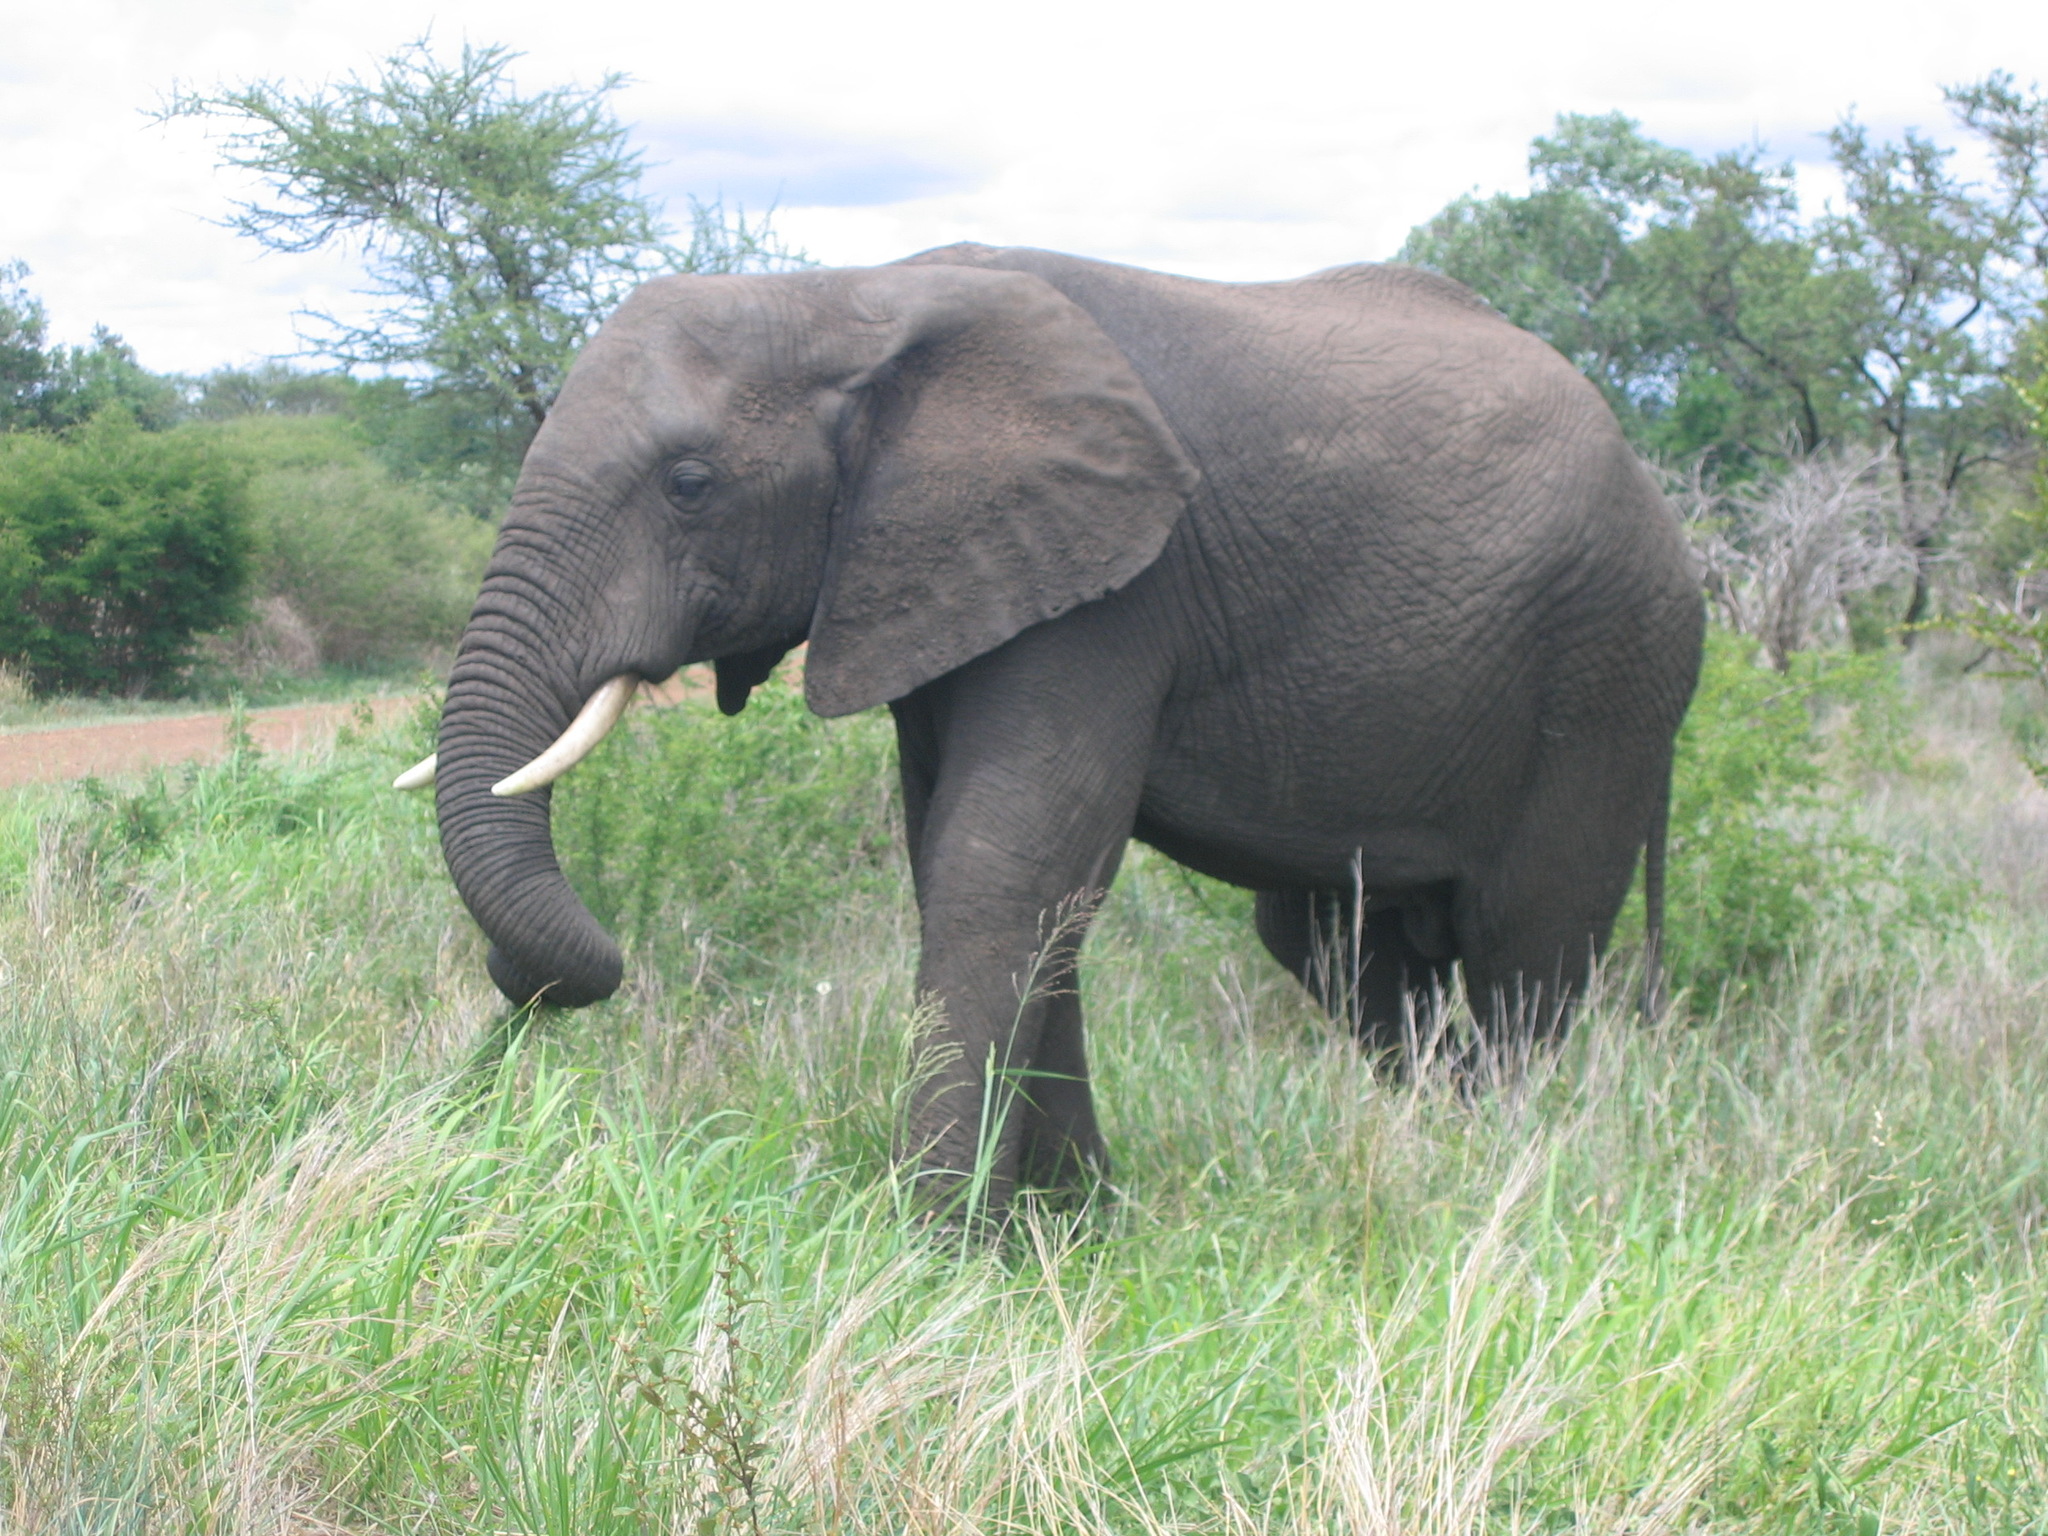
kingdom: Animalia
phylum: Chordata
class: Mammalia
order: Proboscidea
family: Elephantidae
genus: Loxodonta
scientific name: Loxodonta africana
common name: African elephant
